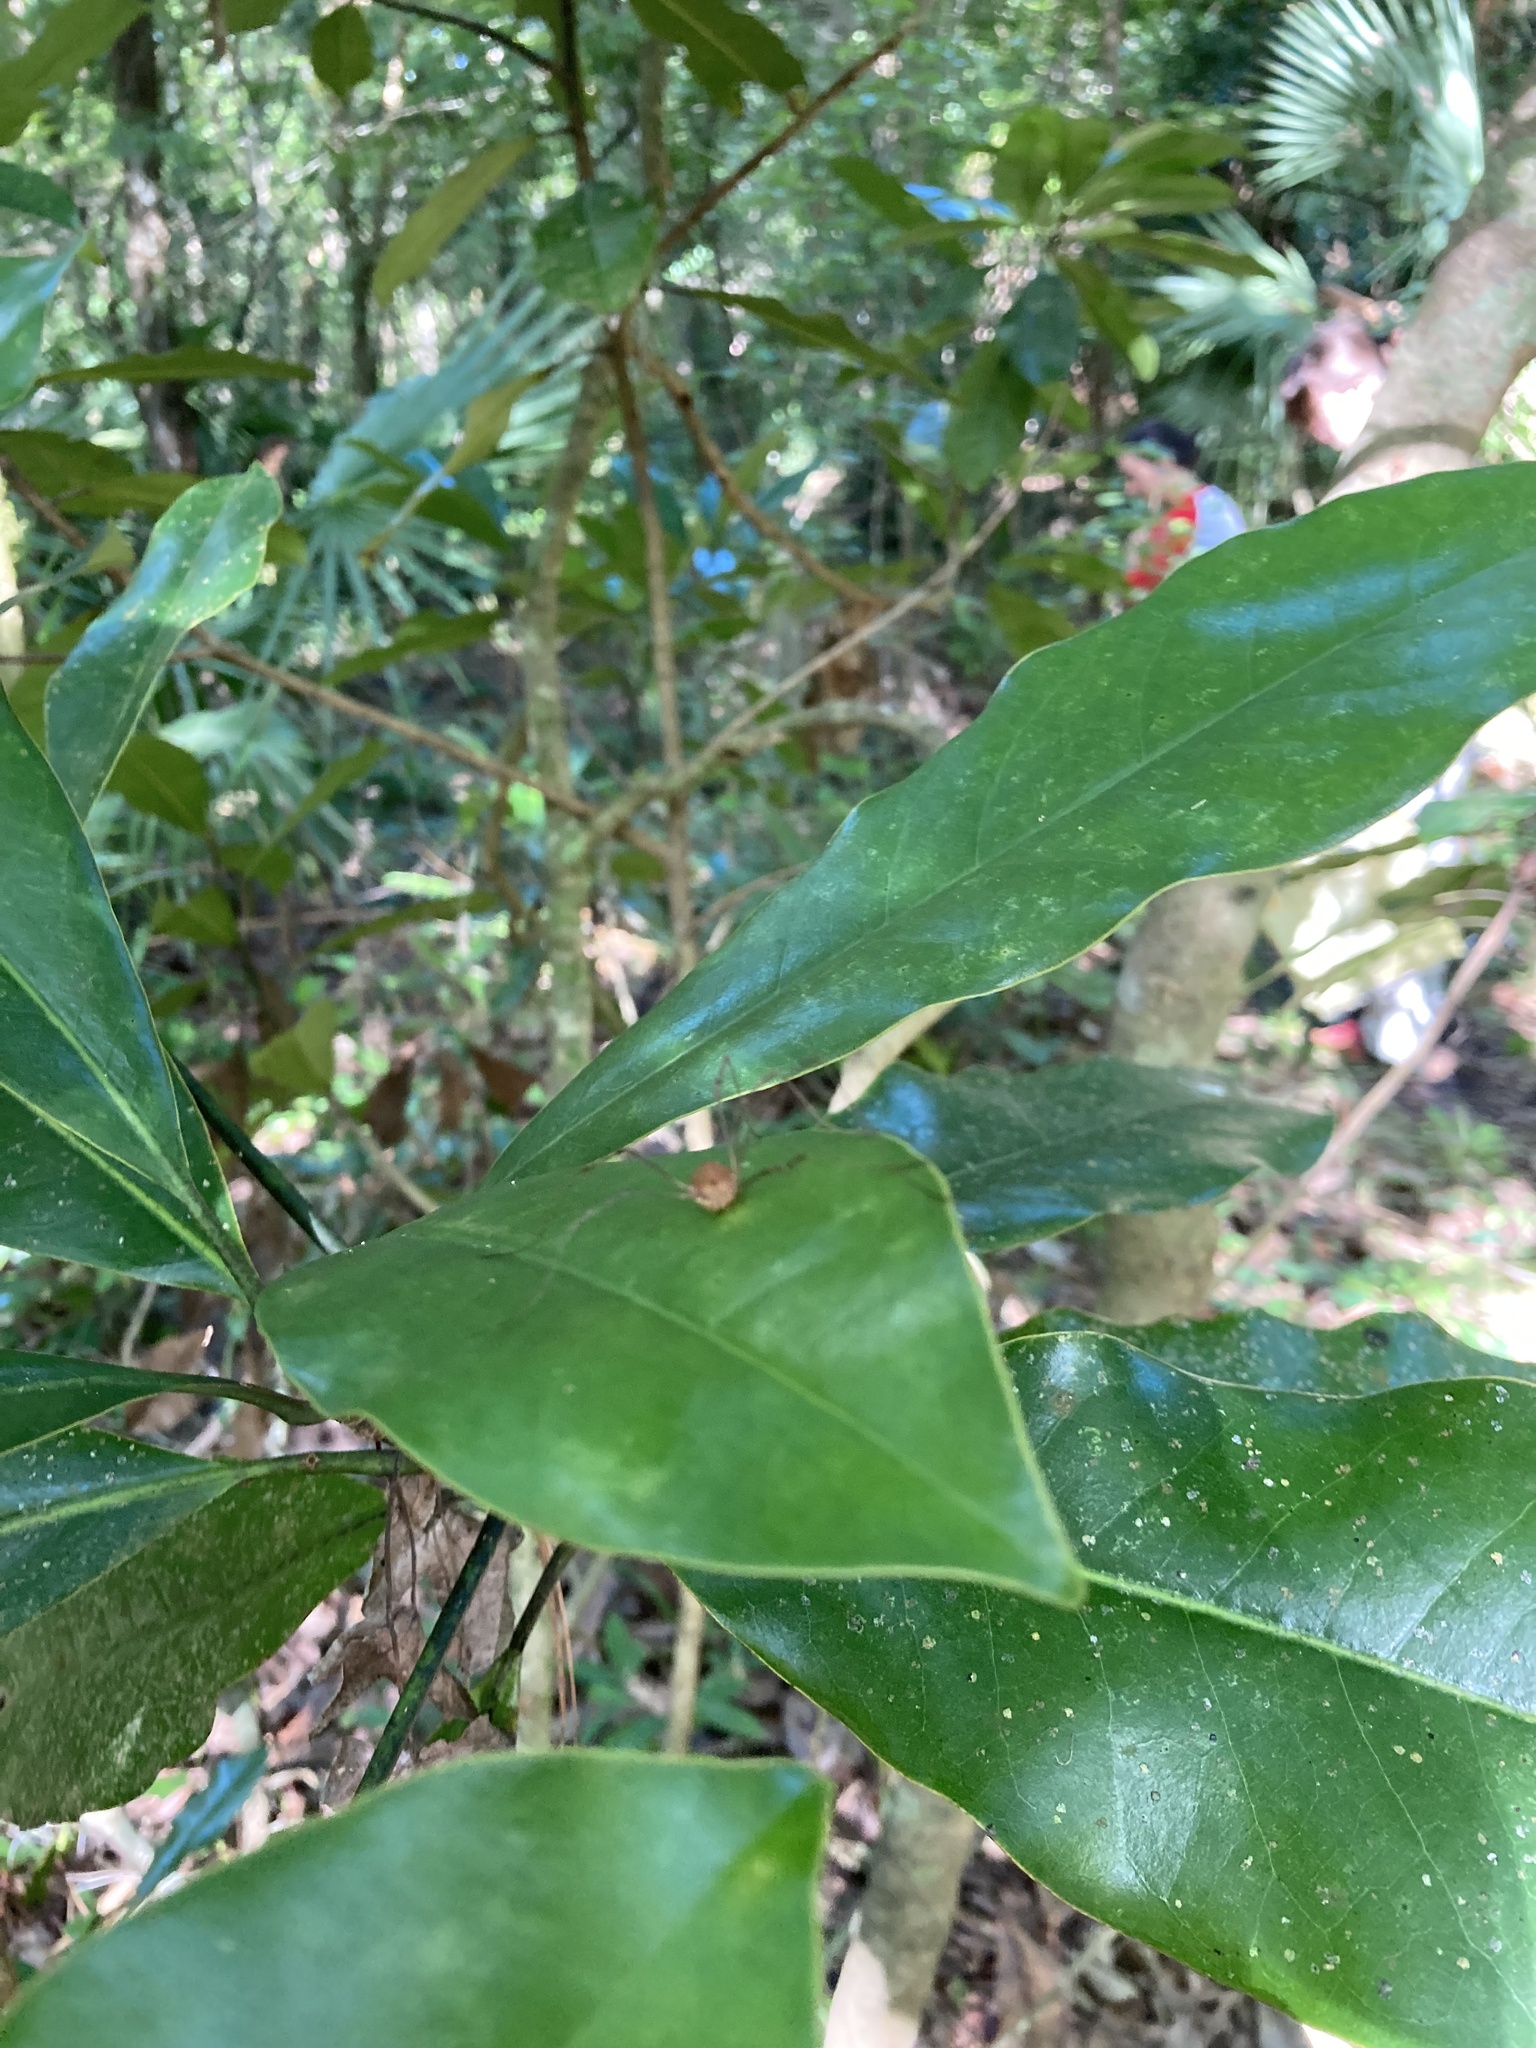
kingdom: Animalia
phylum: Arthropoda
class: Arachnida
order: Opiliones
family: Sclerosomatidae
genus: Hadrobunus
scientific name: Hadrobunus grandis
